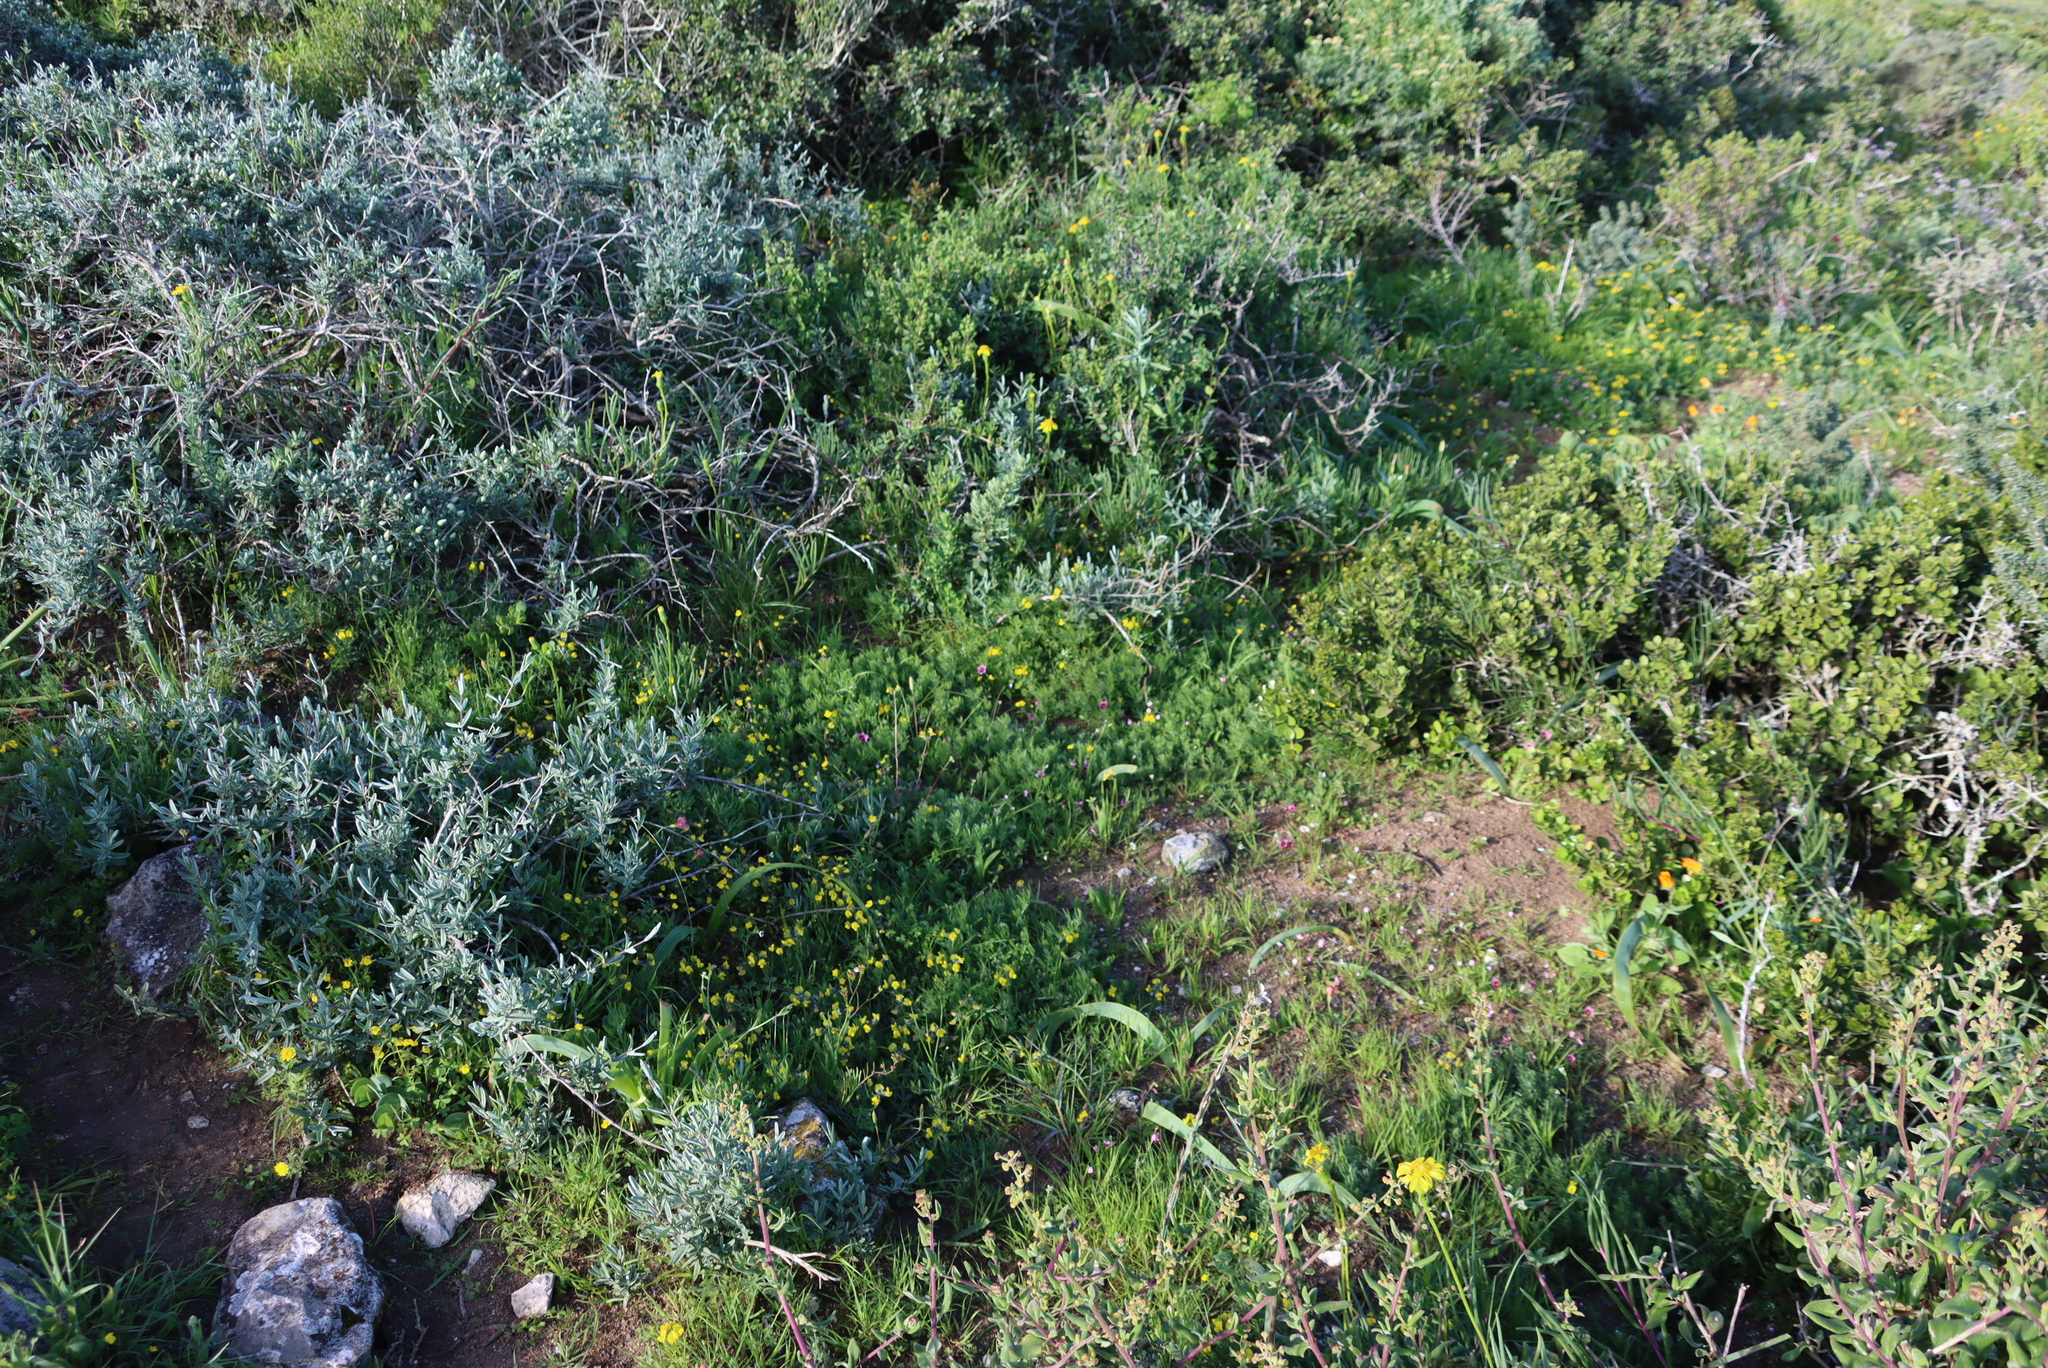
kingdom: Plantae
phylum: Tracheophyta
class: Magnoliopsida
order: Fabales
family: Fabaceae
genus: Lotononis
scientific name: Lotononis involucrata
